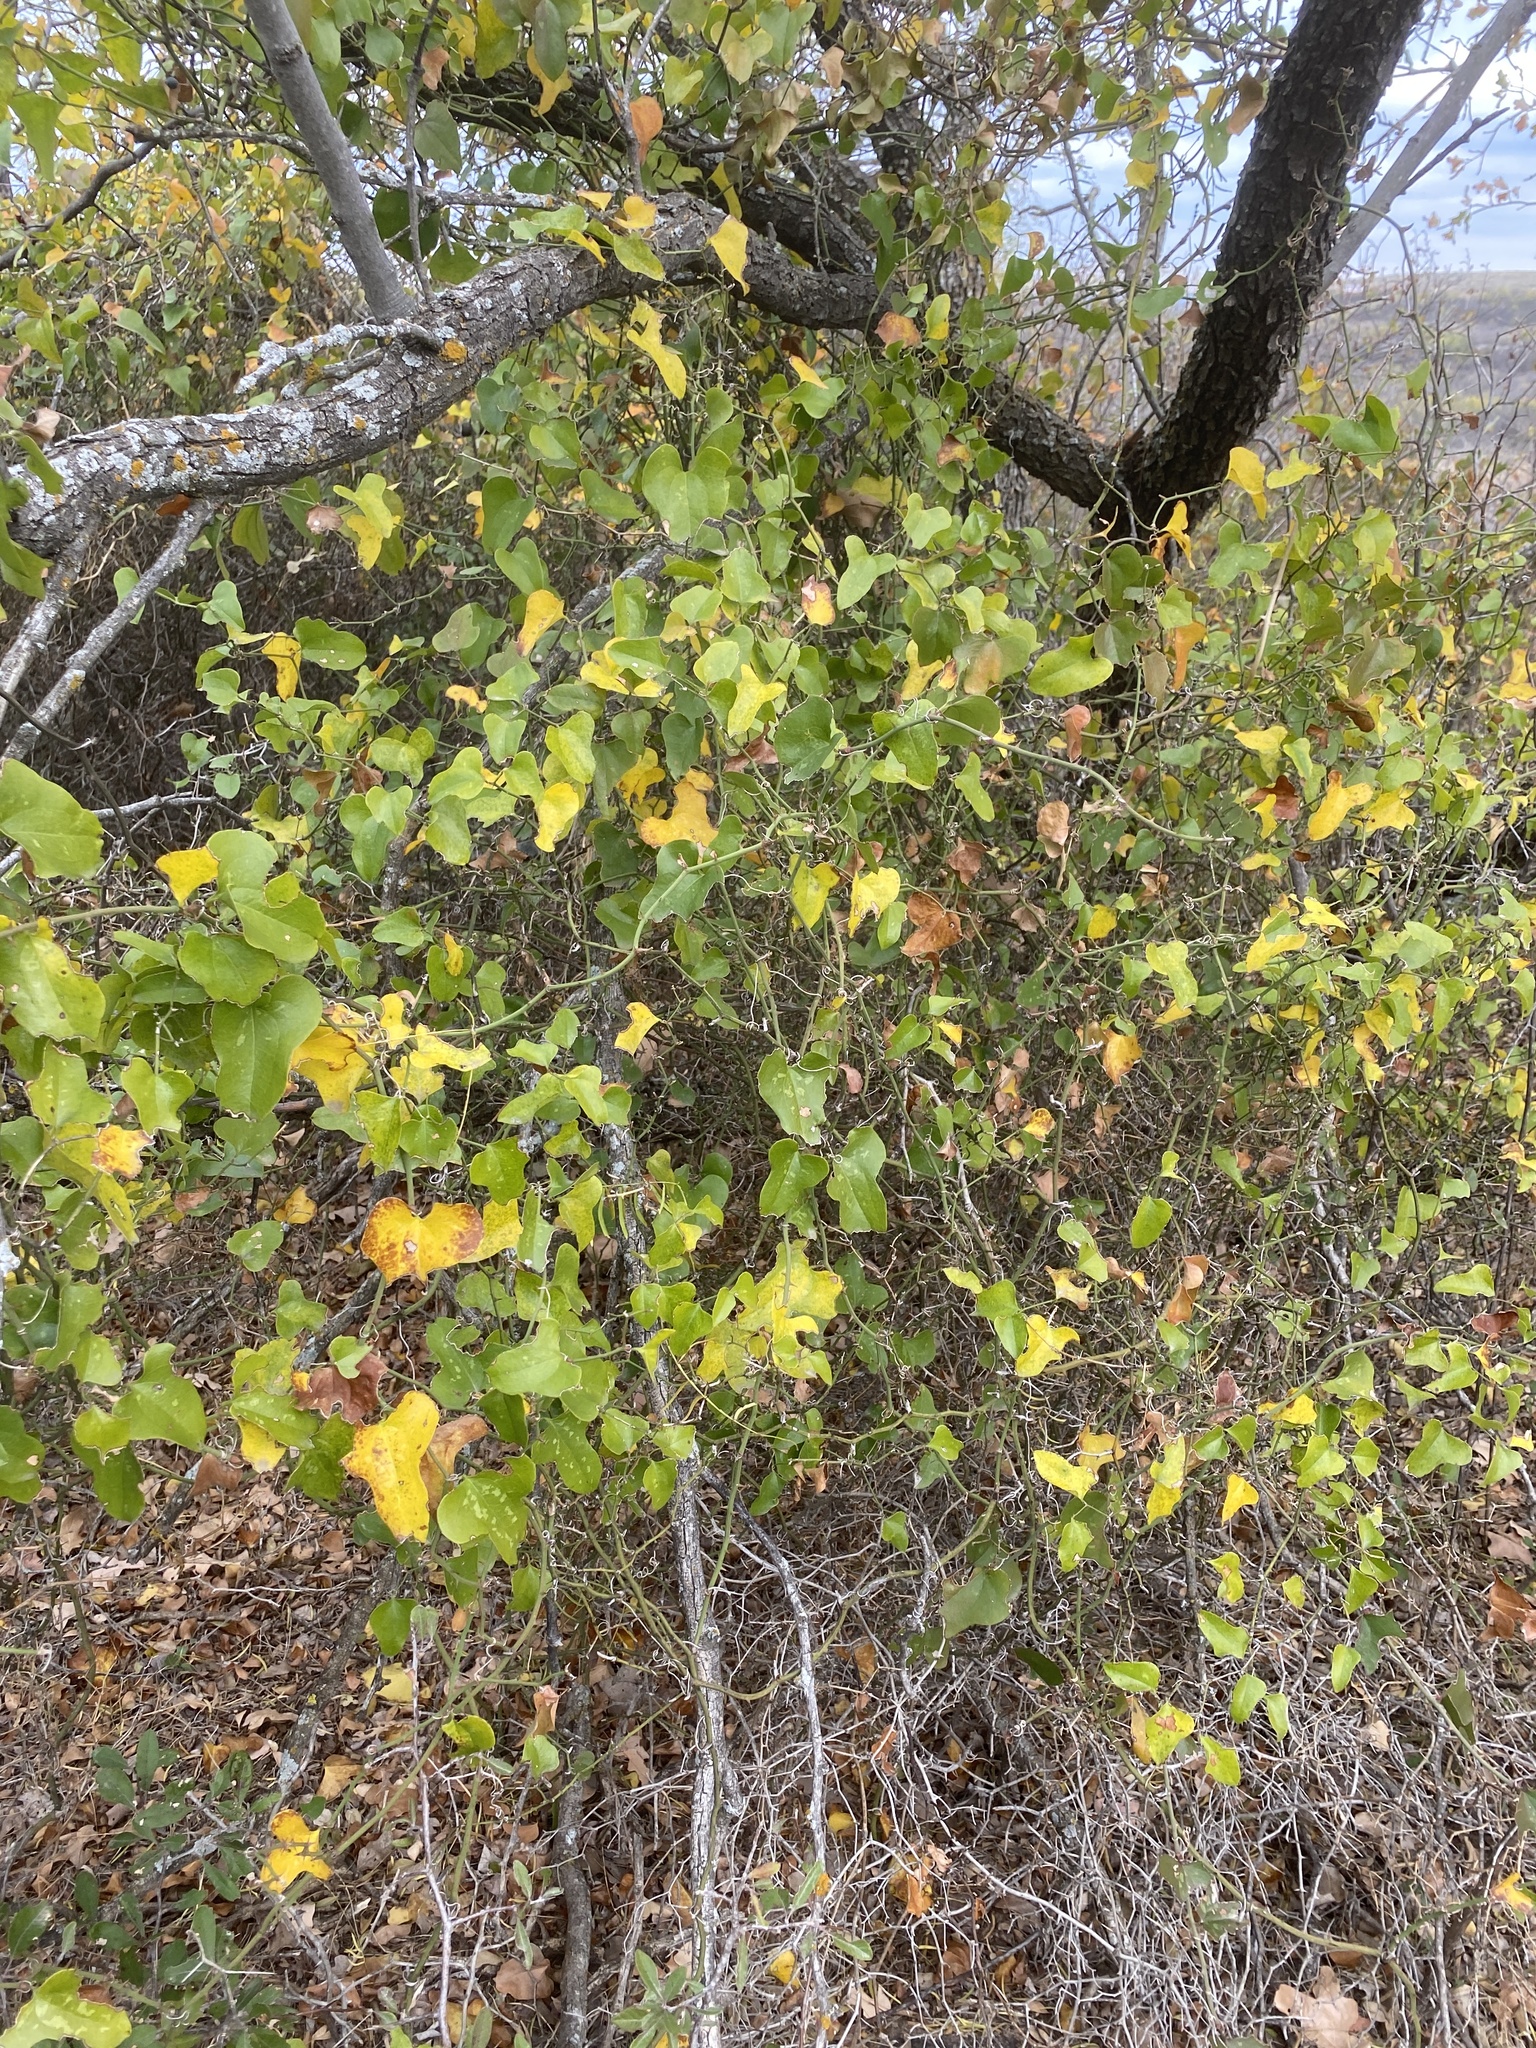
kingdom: Plantae
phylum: Tracheophyta
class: Liliopsida
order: Liliales
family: Smilacaceae
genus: Smilax
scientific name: Smilax bona-nox
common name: Catbrier
